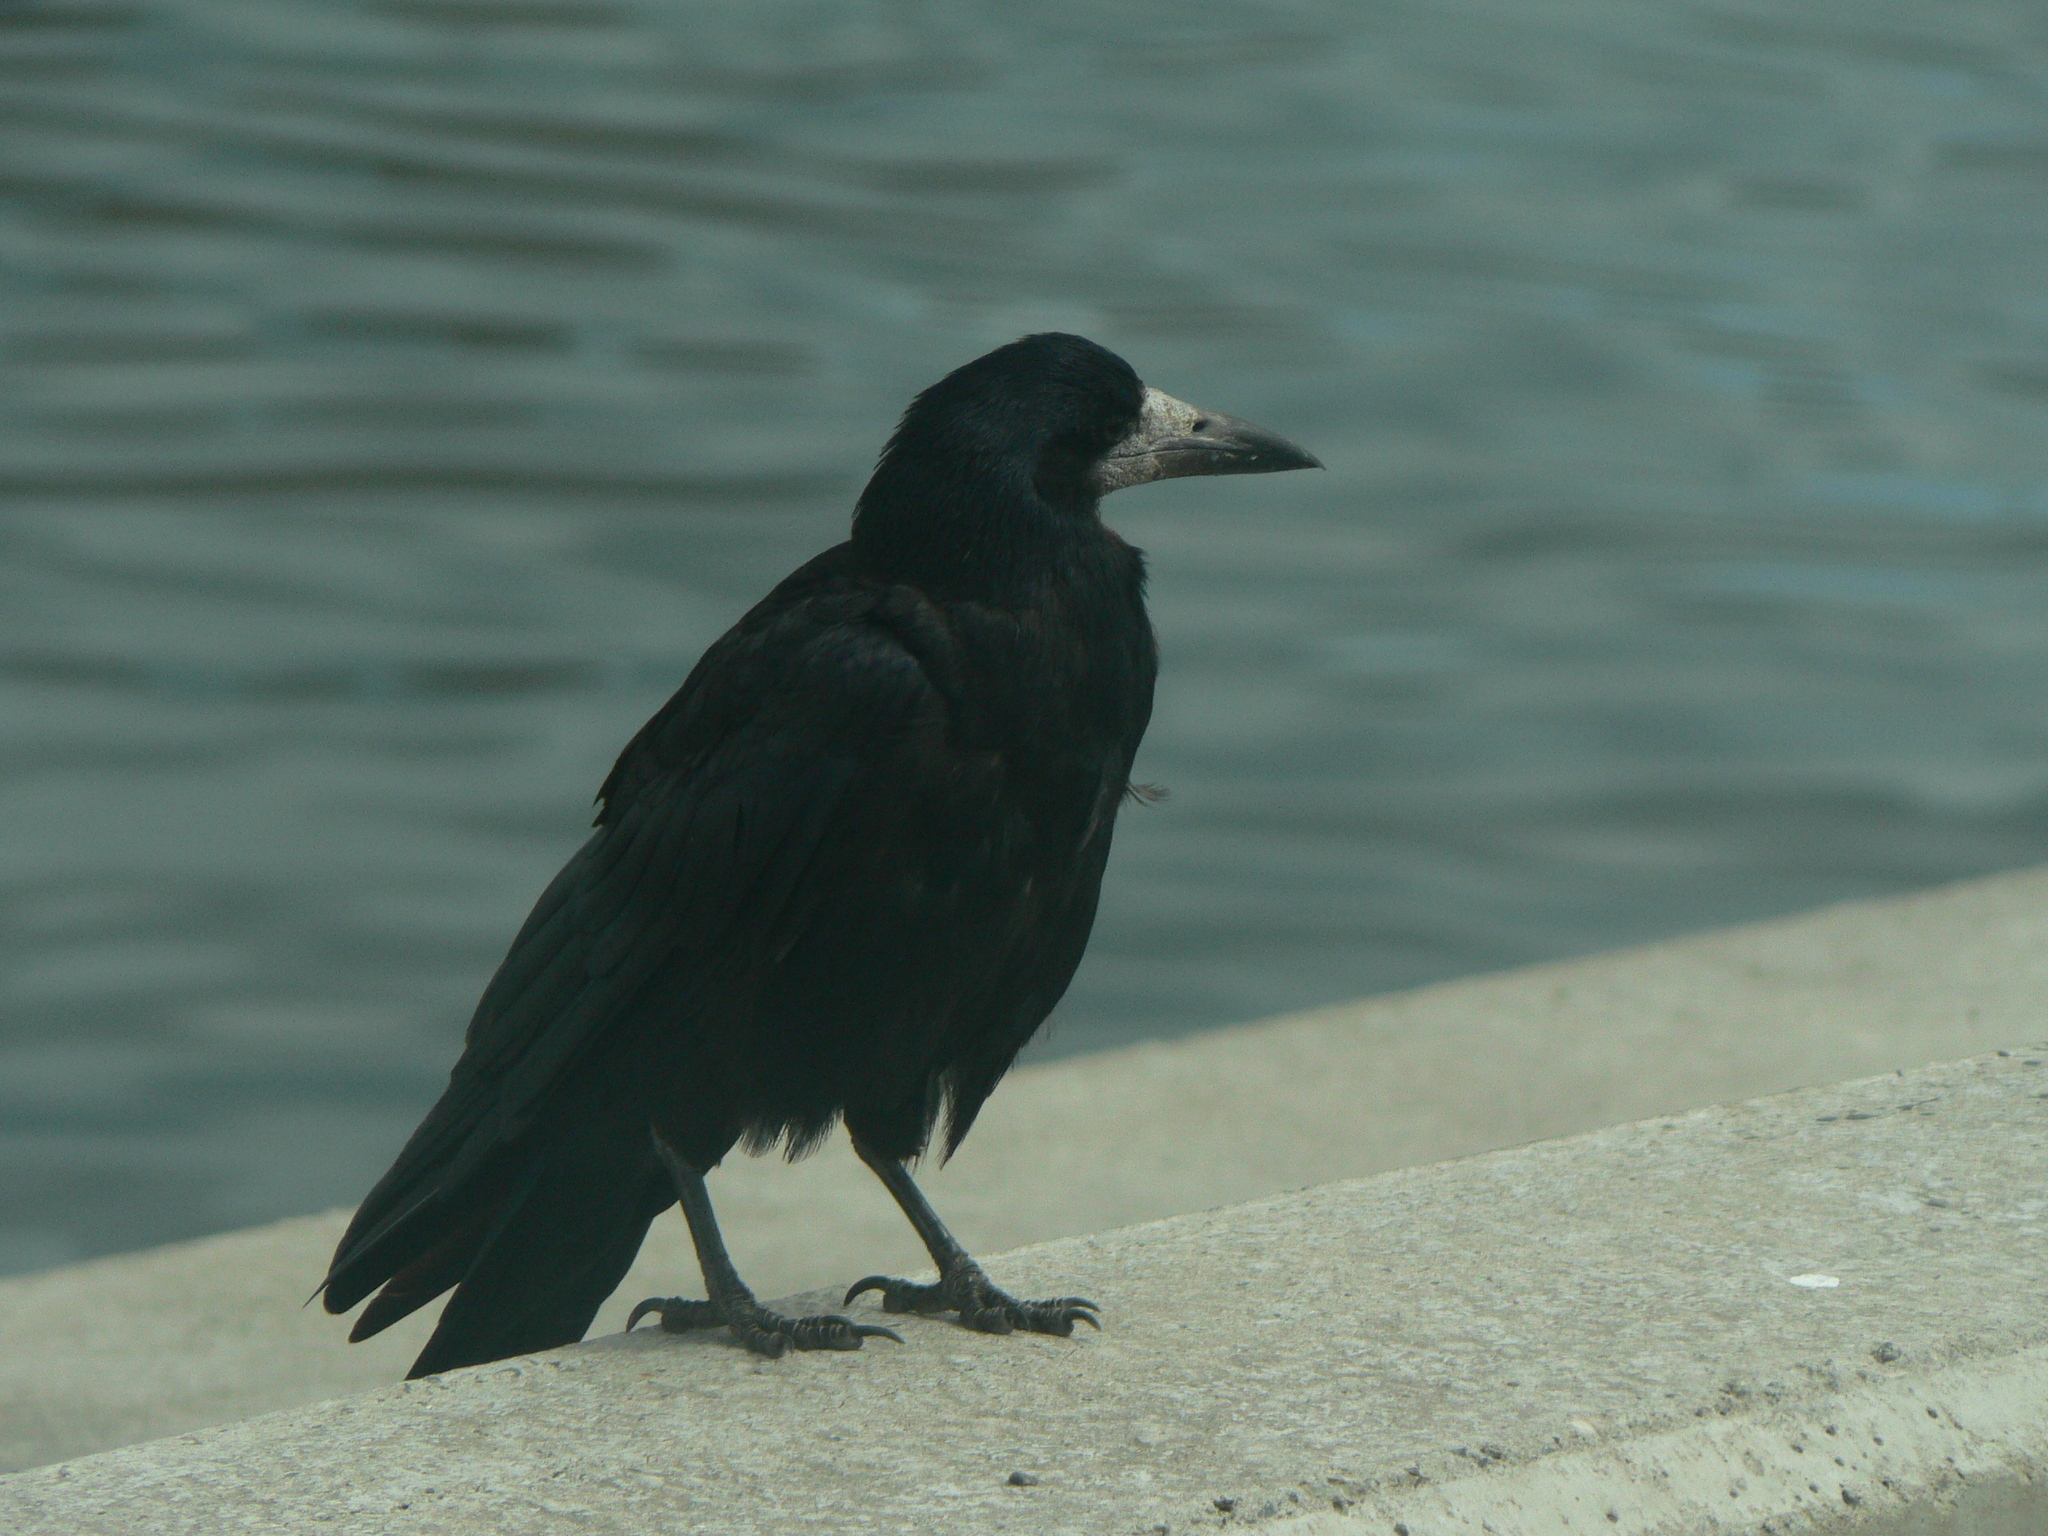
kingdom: Animalia
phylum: Chordata
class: Aves
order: Passeriformes
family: Corvidae
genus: Corvus
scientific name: Corvus frugilegus
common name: Rook
